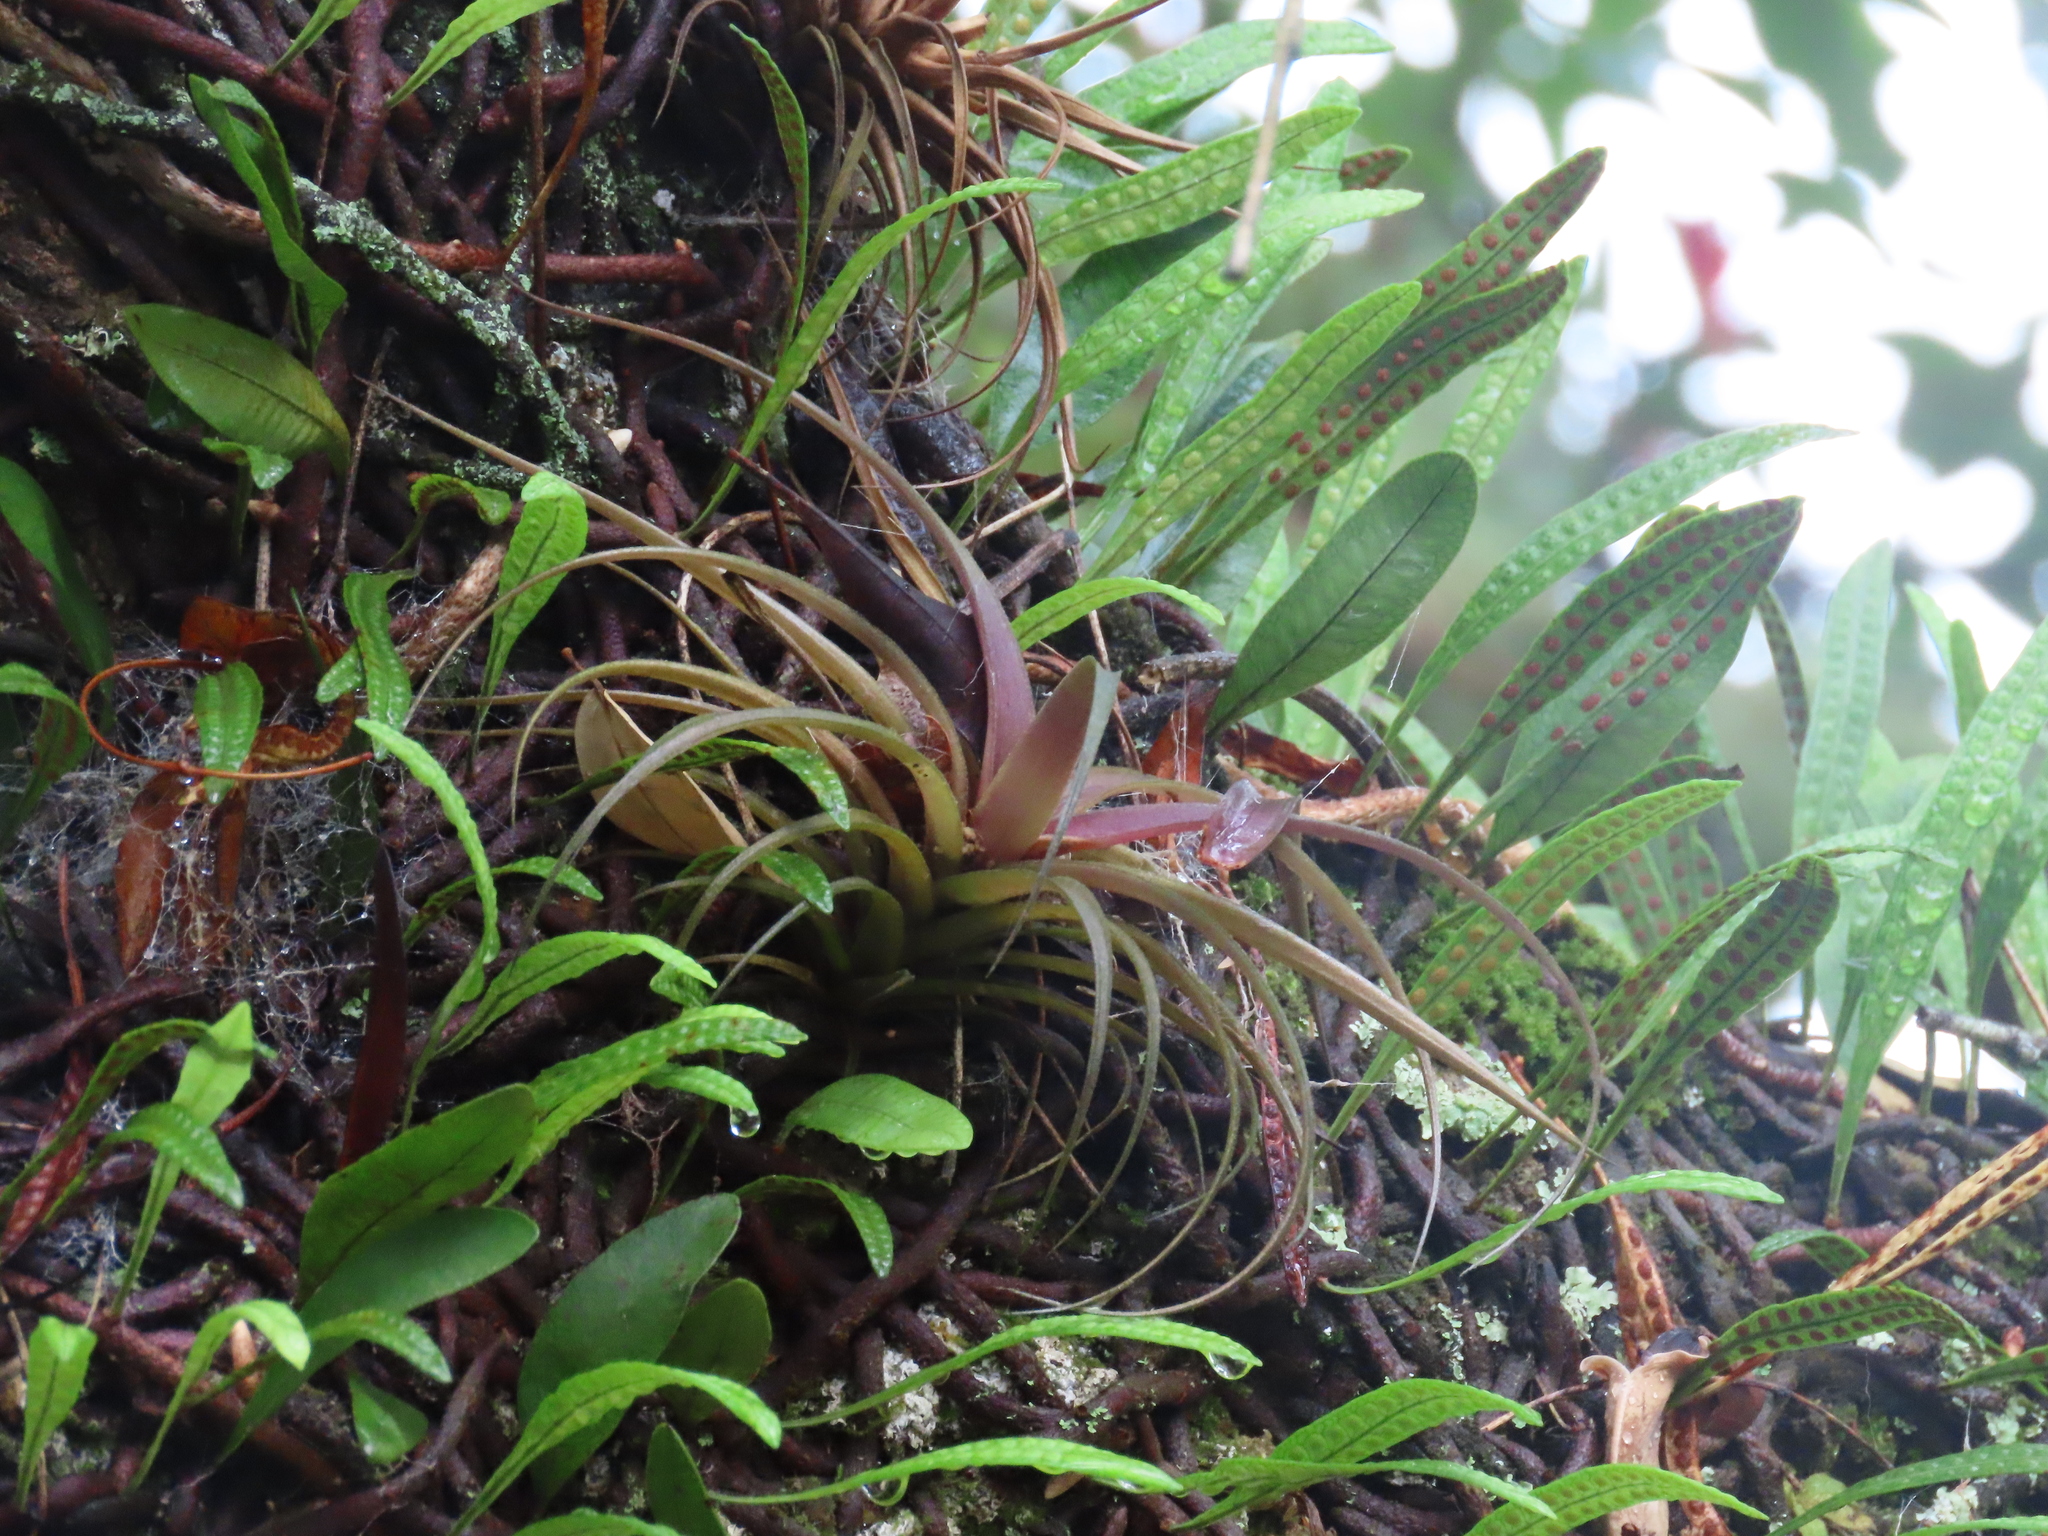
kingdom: Plantae
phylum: Tracheophyta
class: Liliopsida
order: Poales
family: Bromeliaceae
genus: Tillandsia
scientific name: Tillandsia aeranthos
